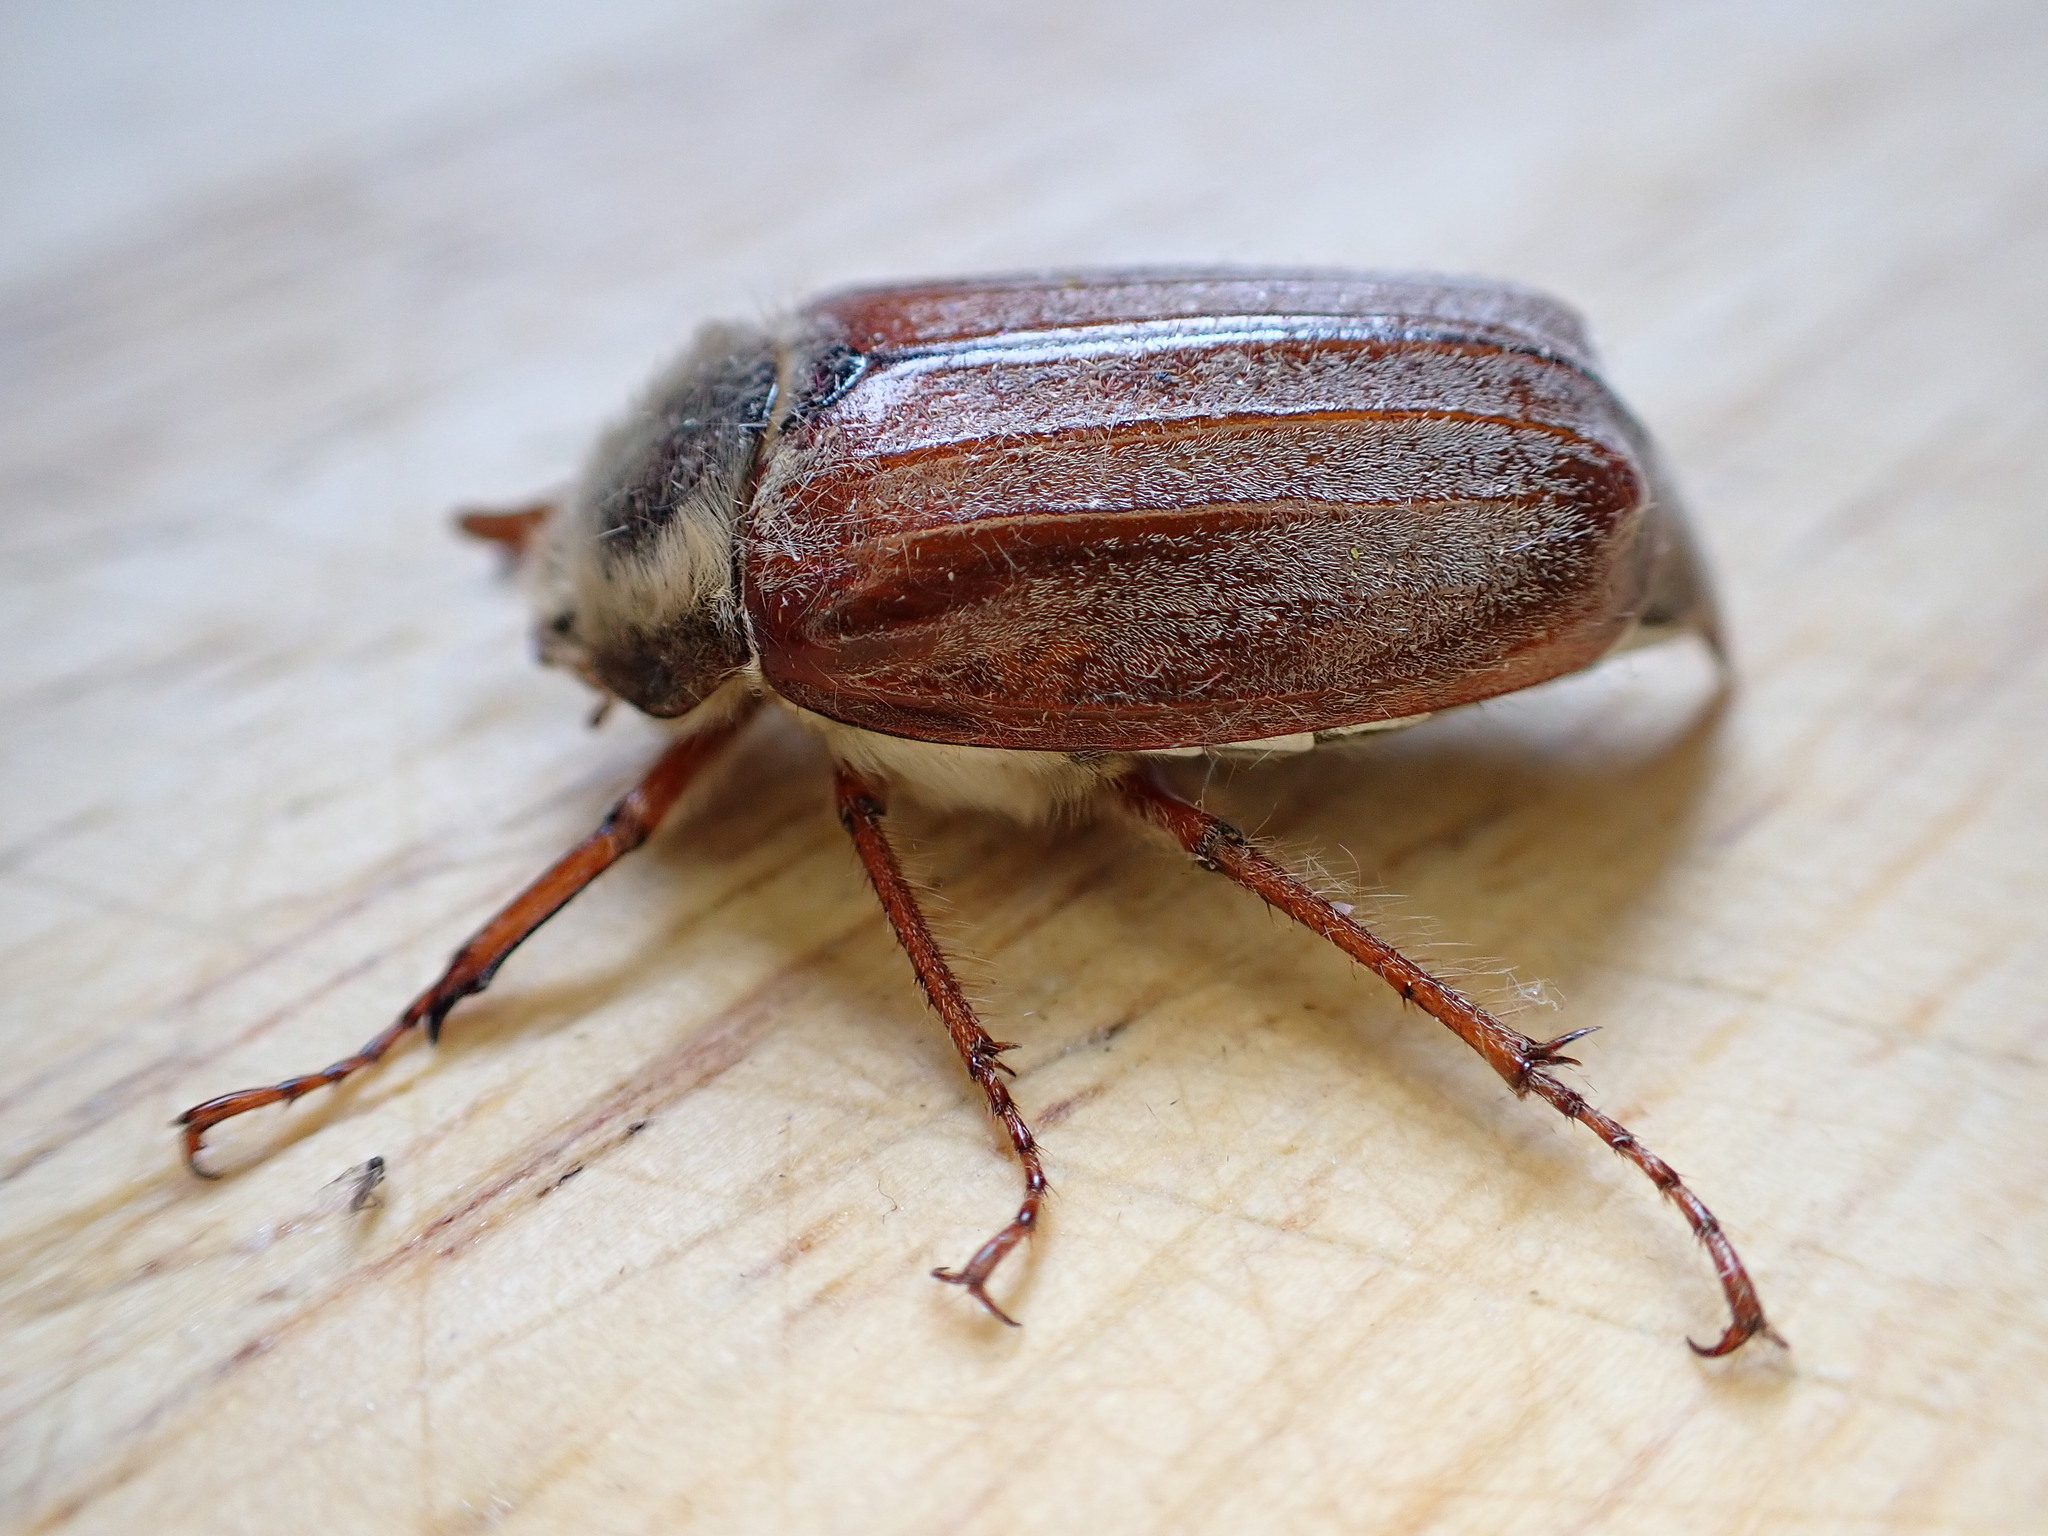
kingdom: Animalia
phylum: Arthropoda
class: Insecta
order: Coleoptera
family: Scarabaeidae
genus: Melolontha
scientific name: Melolontha melolontha
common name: Cockchafer maybeetle
